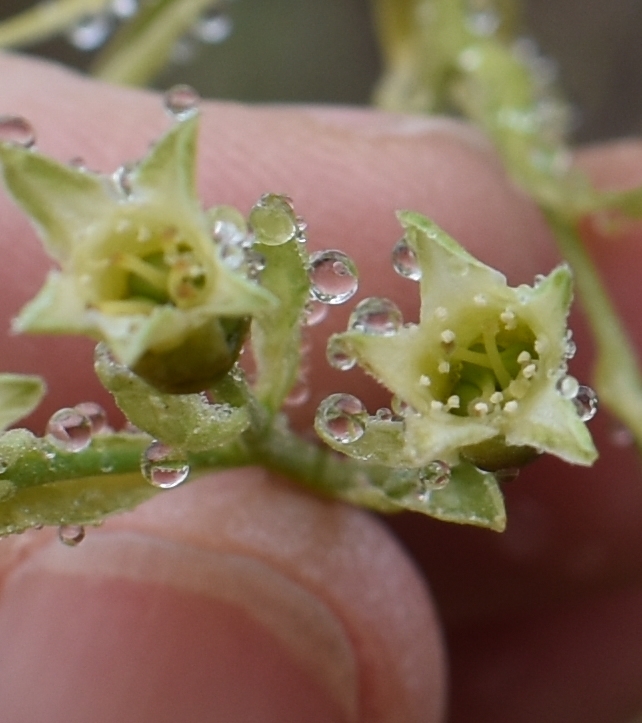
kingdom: Plantae
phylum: Tracheophyta
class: Magnoliopsida
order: Rosales
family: Rosaceae
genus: Oemleria
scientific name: Oemleria cerasiformis
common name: Osoberry
